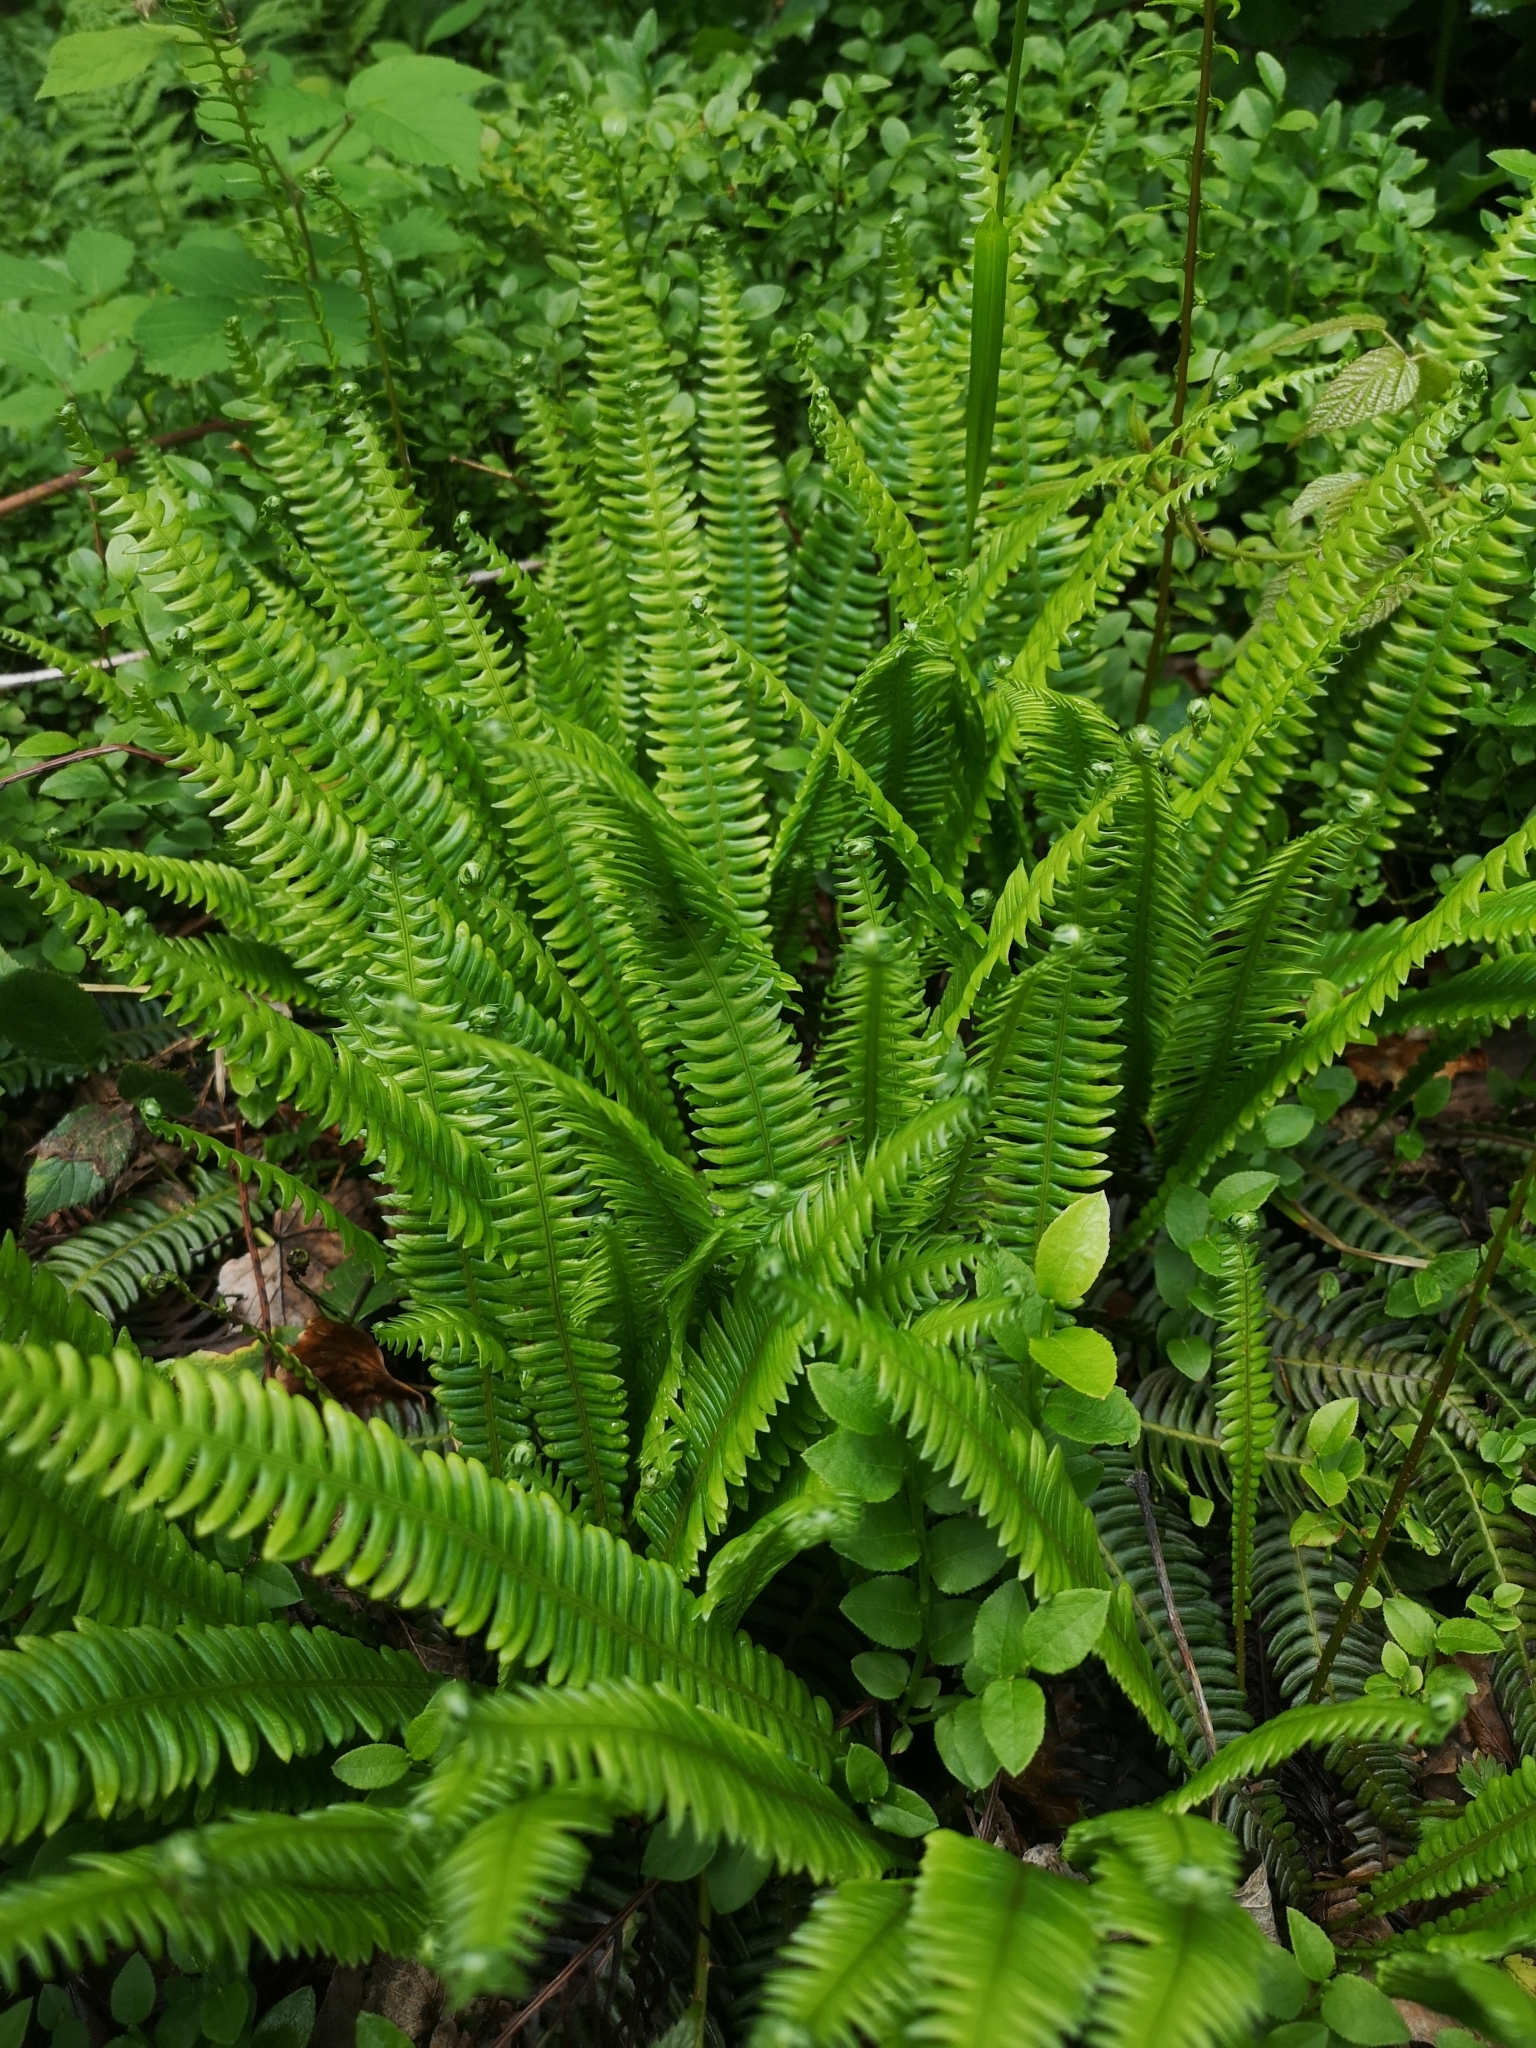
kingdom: Plantae
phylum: Tracheophyta
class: Polypodiopsida
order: Polypodiales
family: Blechnaceae
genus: Struthiopteris
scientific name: Struthiopteris spicant
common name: Deer fern
